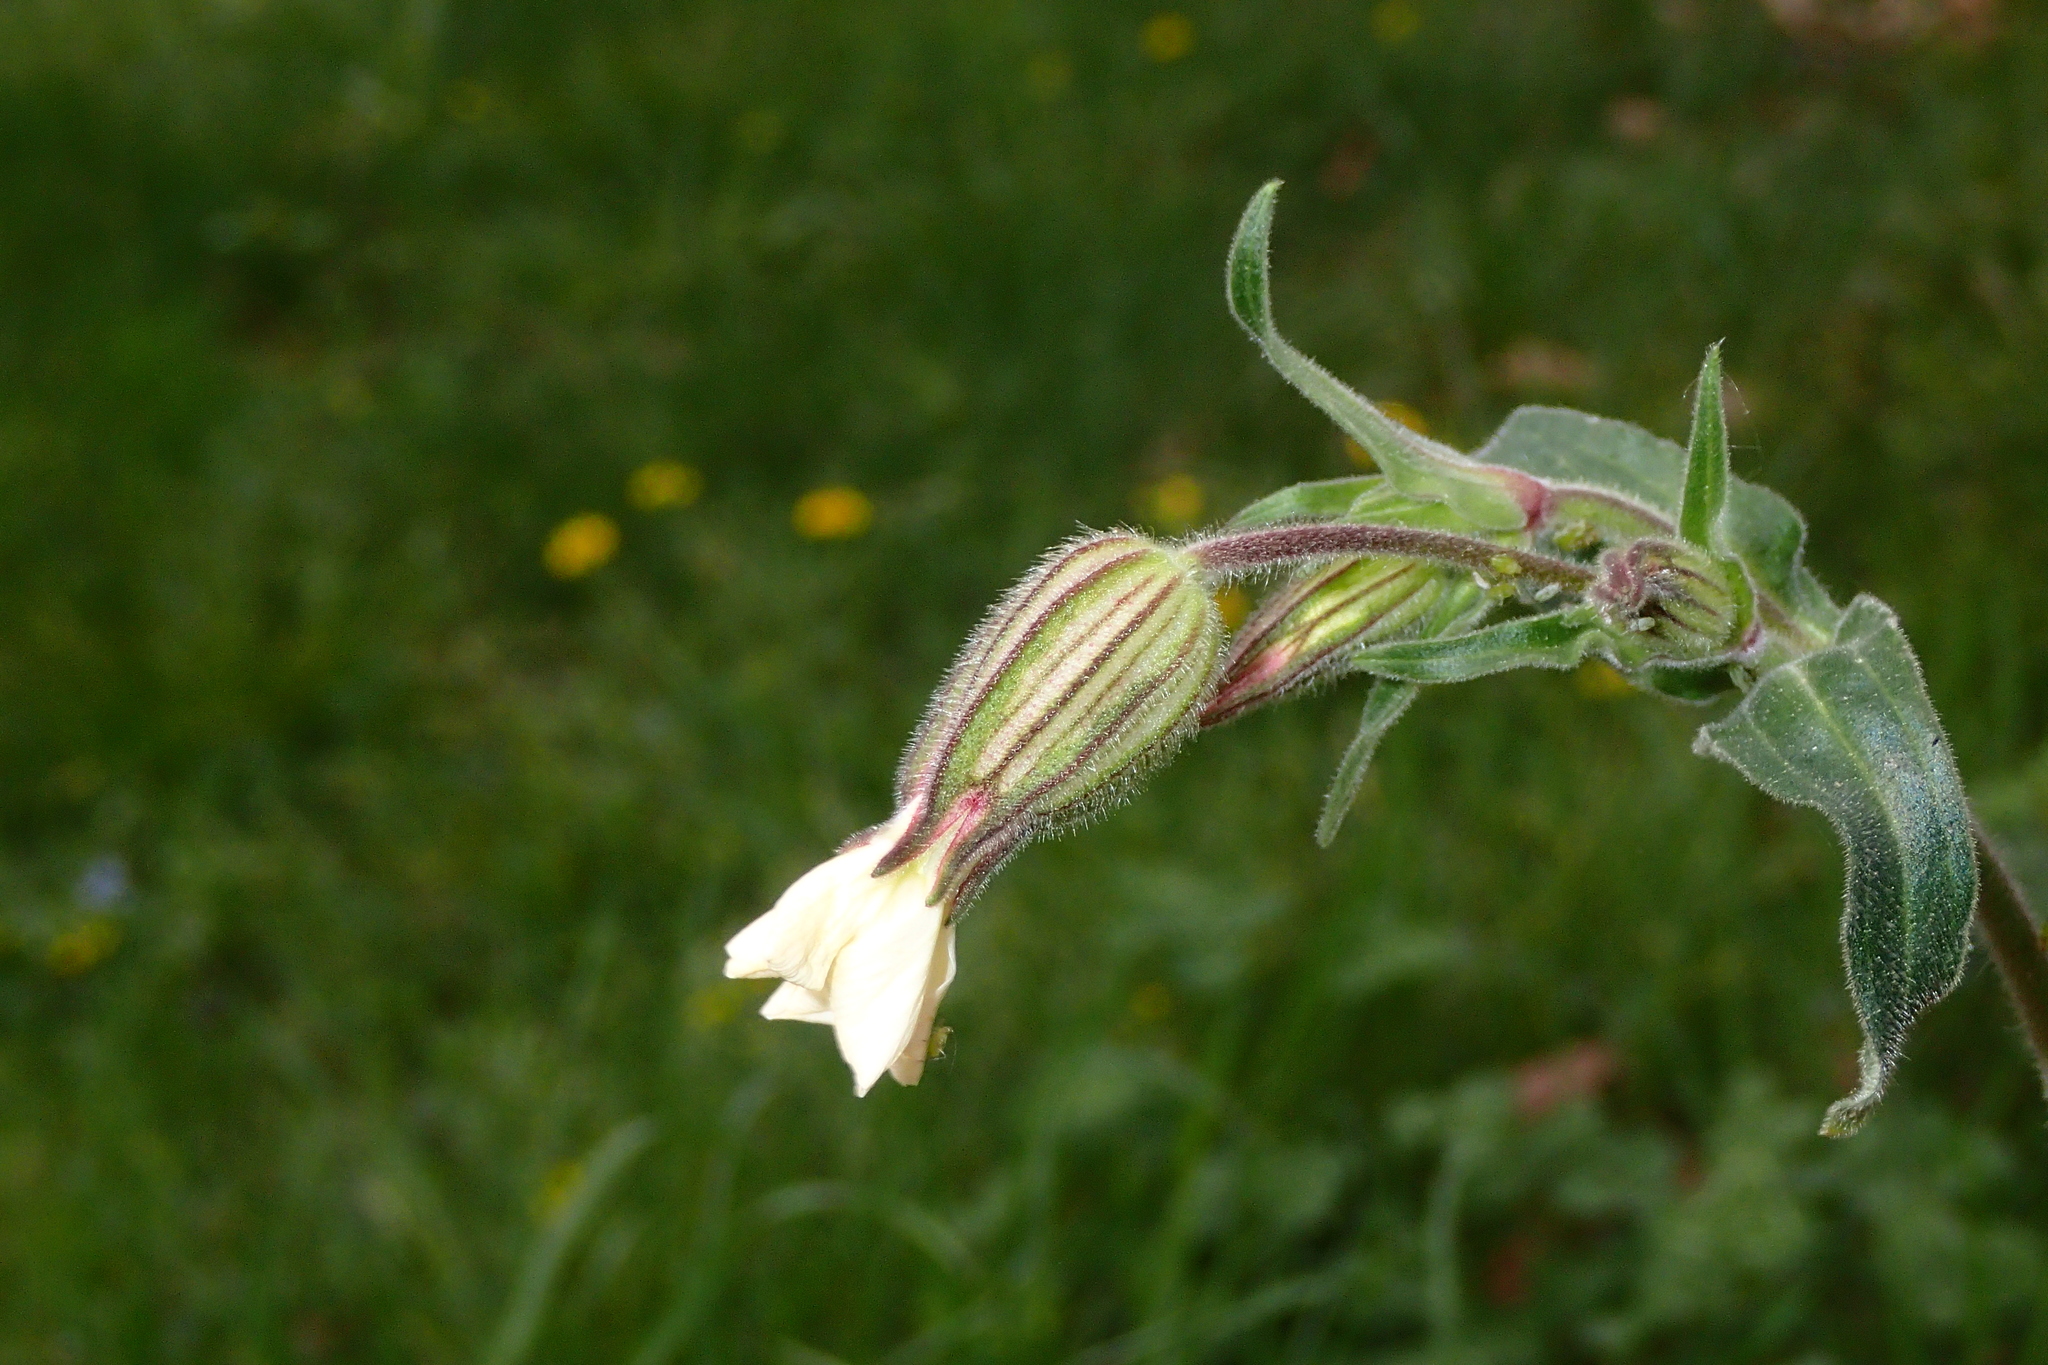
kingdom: Plantae
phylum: Tracheophyta
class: Magnoliopsida
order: Caryophyllales
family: Caryophyllaceae
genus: Silene
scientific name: Silene latifolia
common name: White campion
